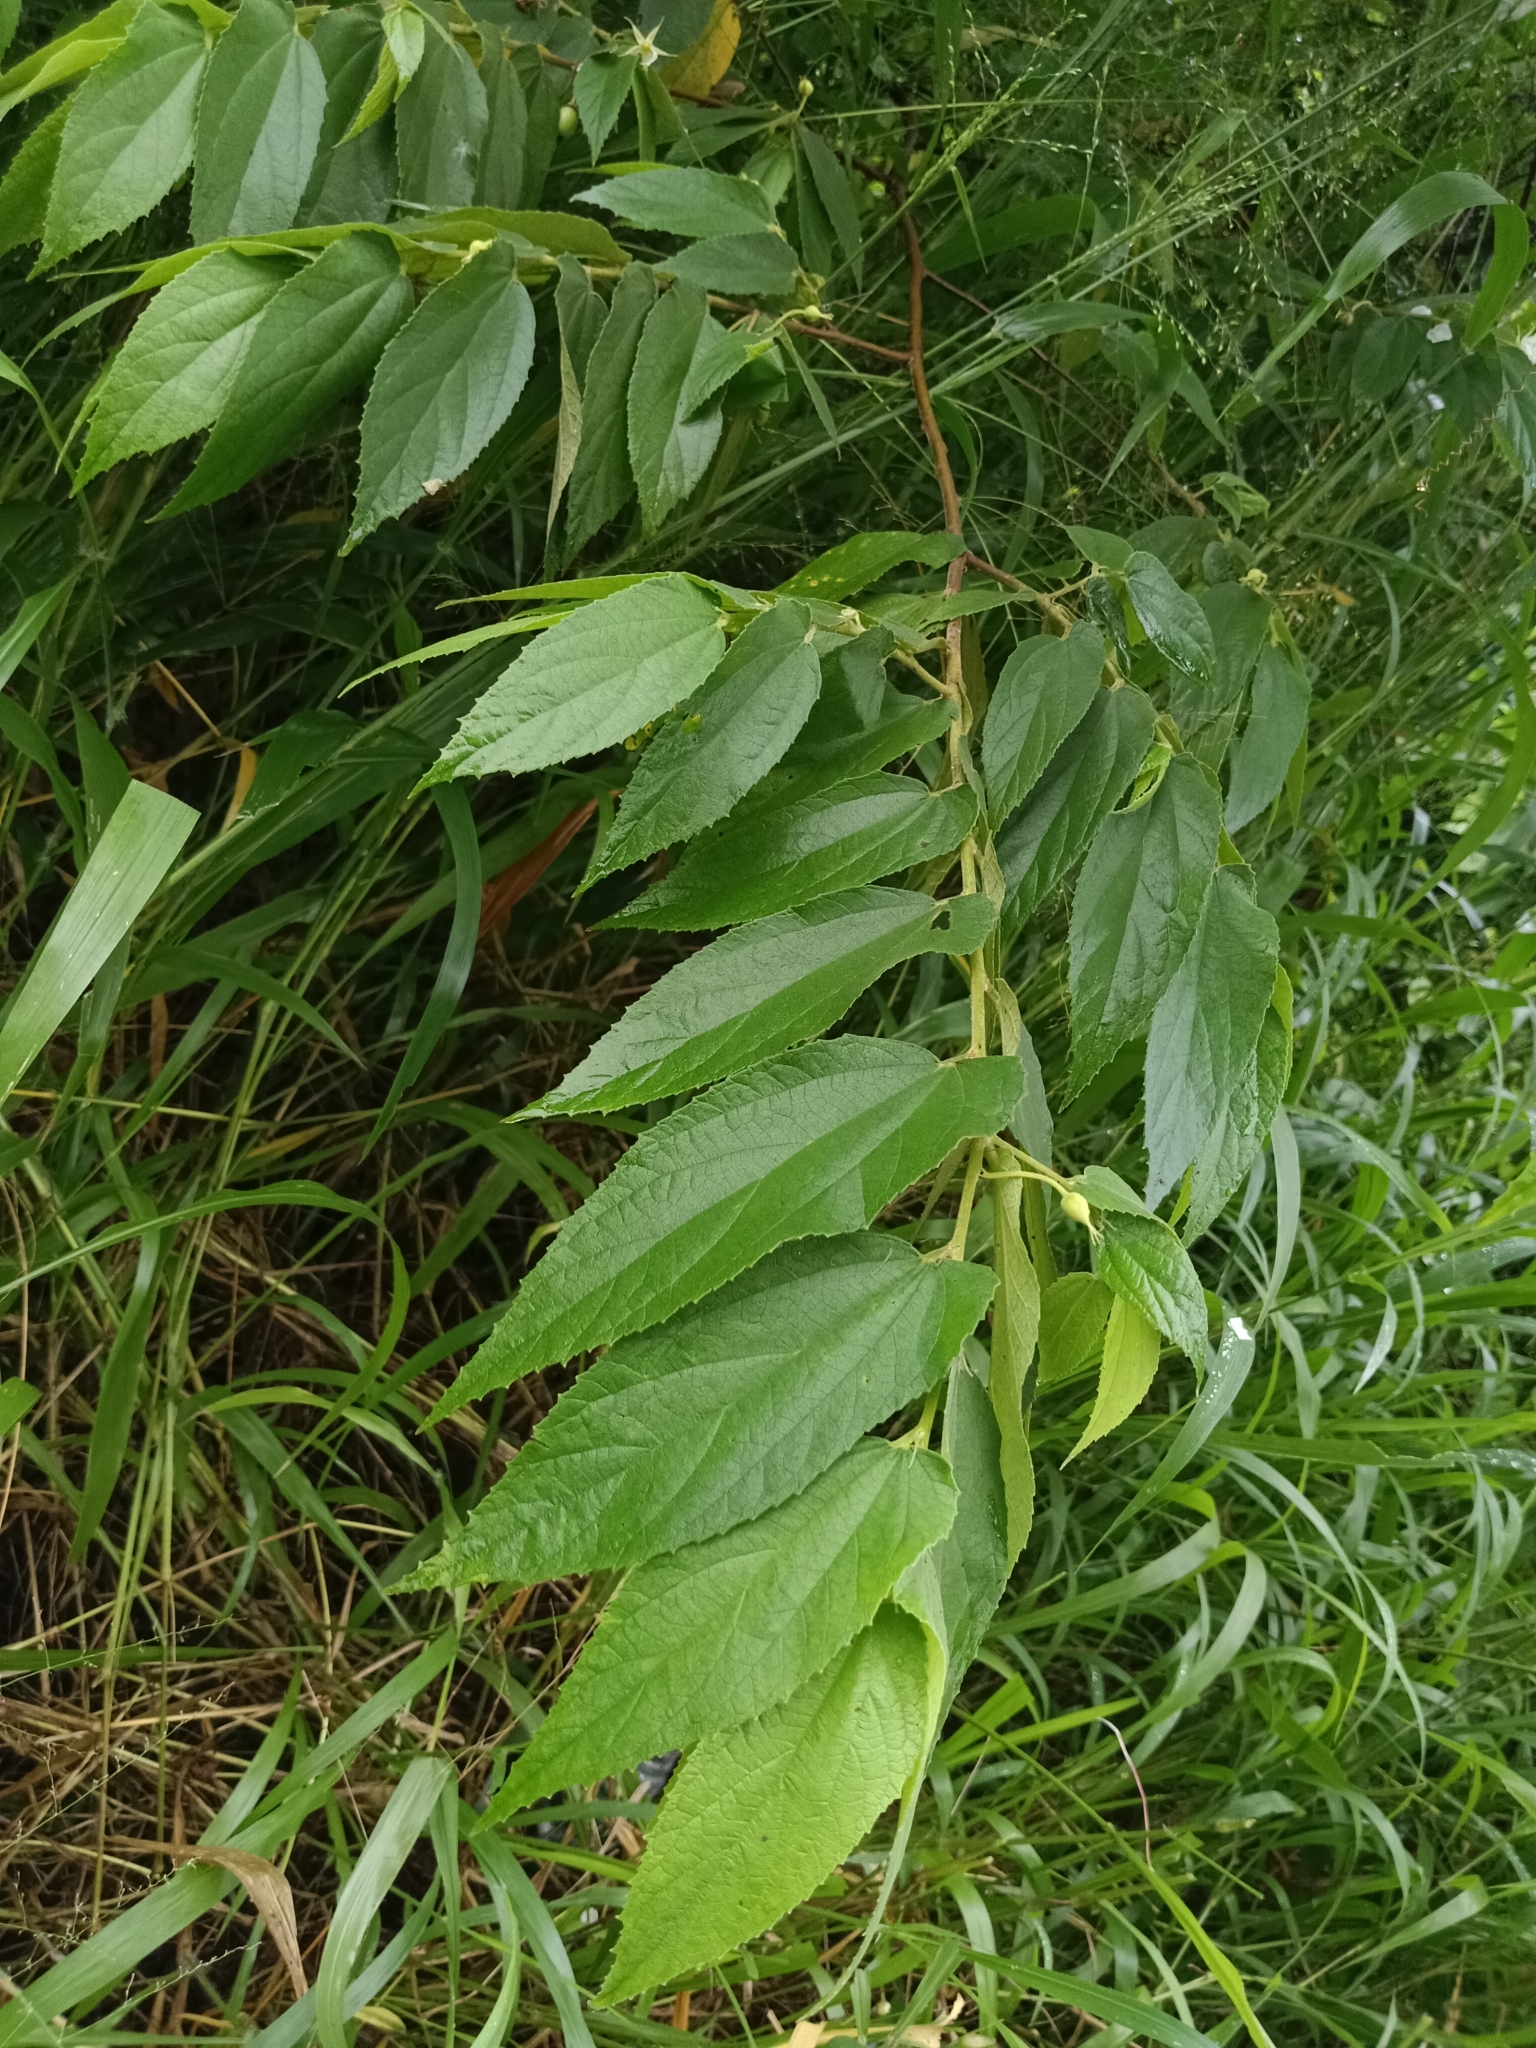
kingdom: Plantae
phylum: Tracheophyta
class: Magnoliopsida
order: Malvales
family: Muntingiaceae
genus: Muntingia
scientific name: Muntingia calabura
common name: Strawberrytree
